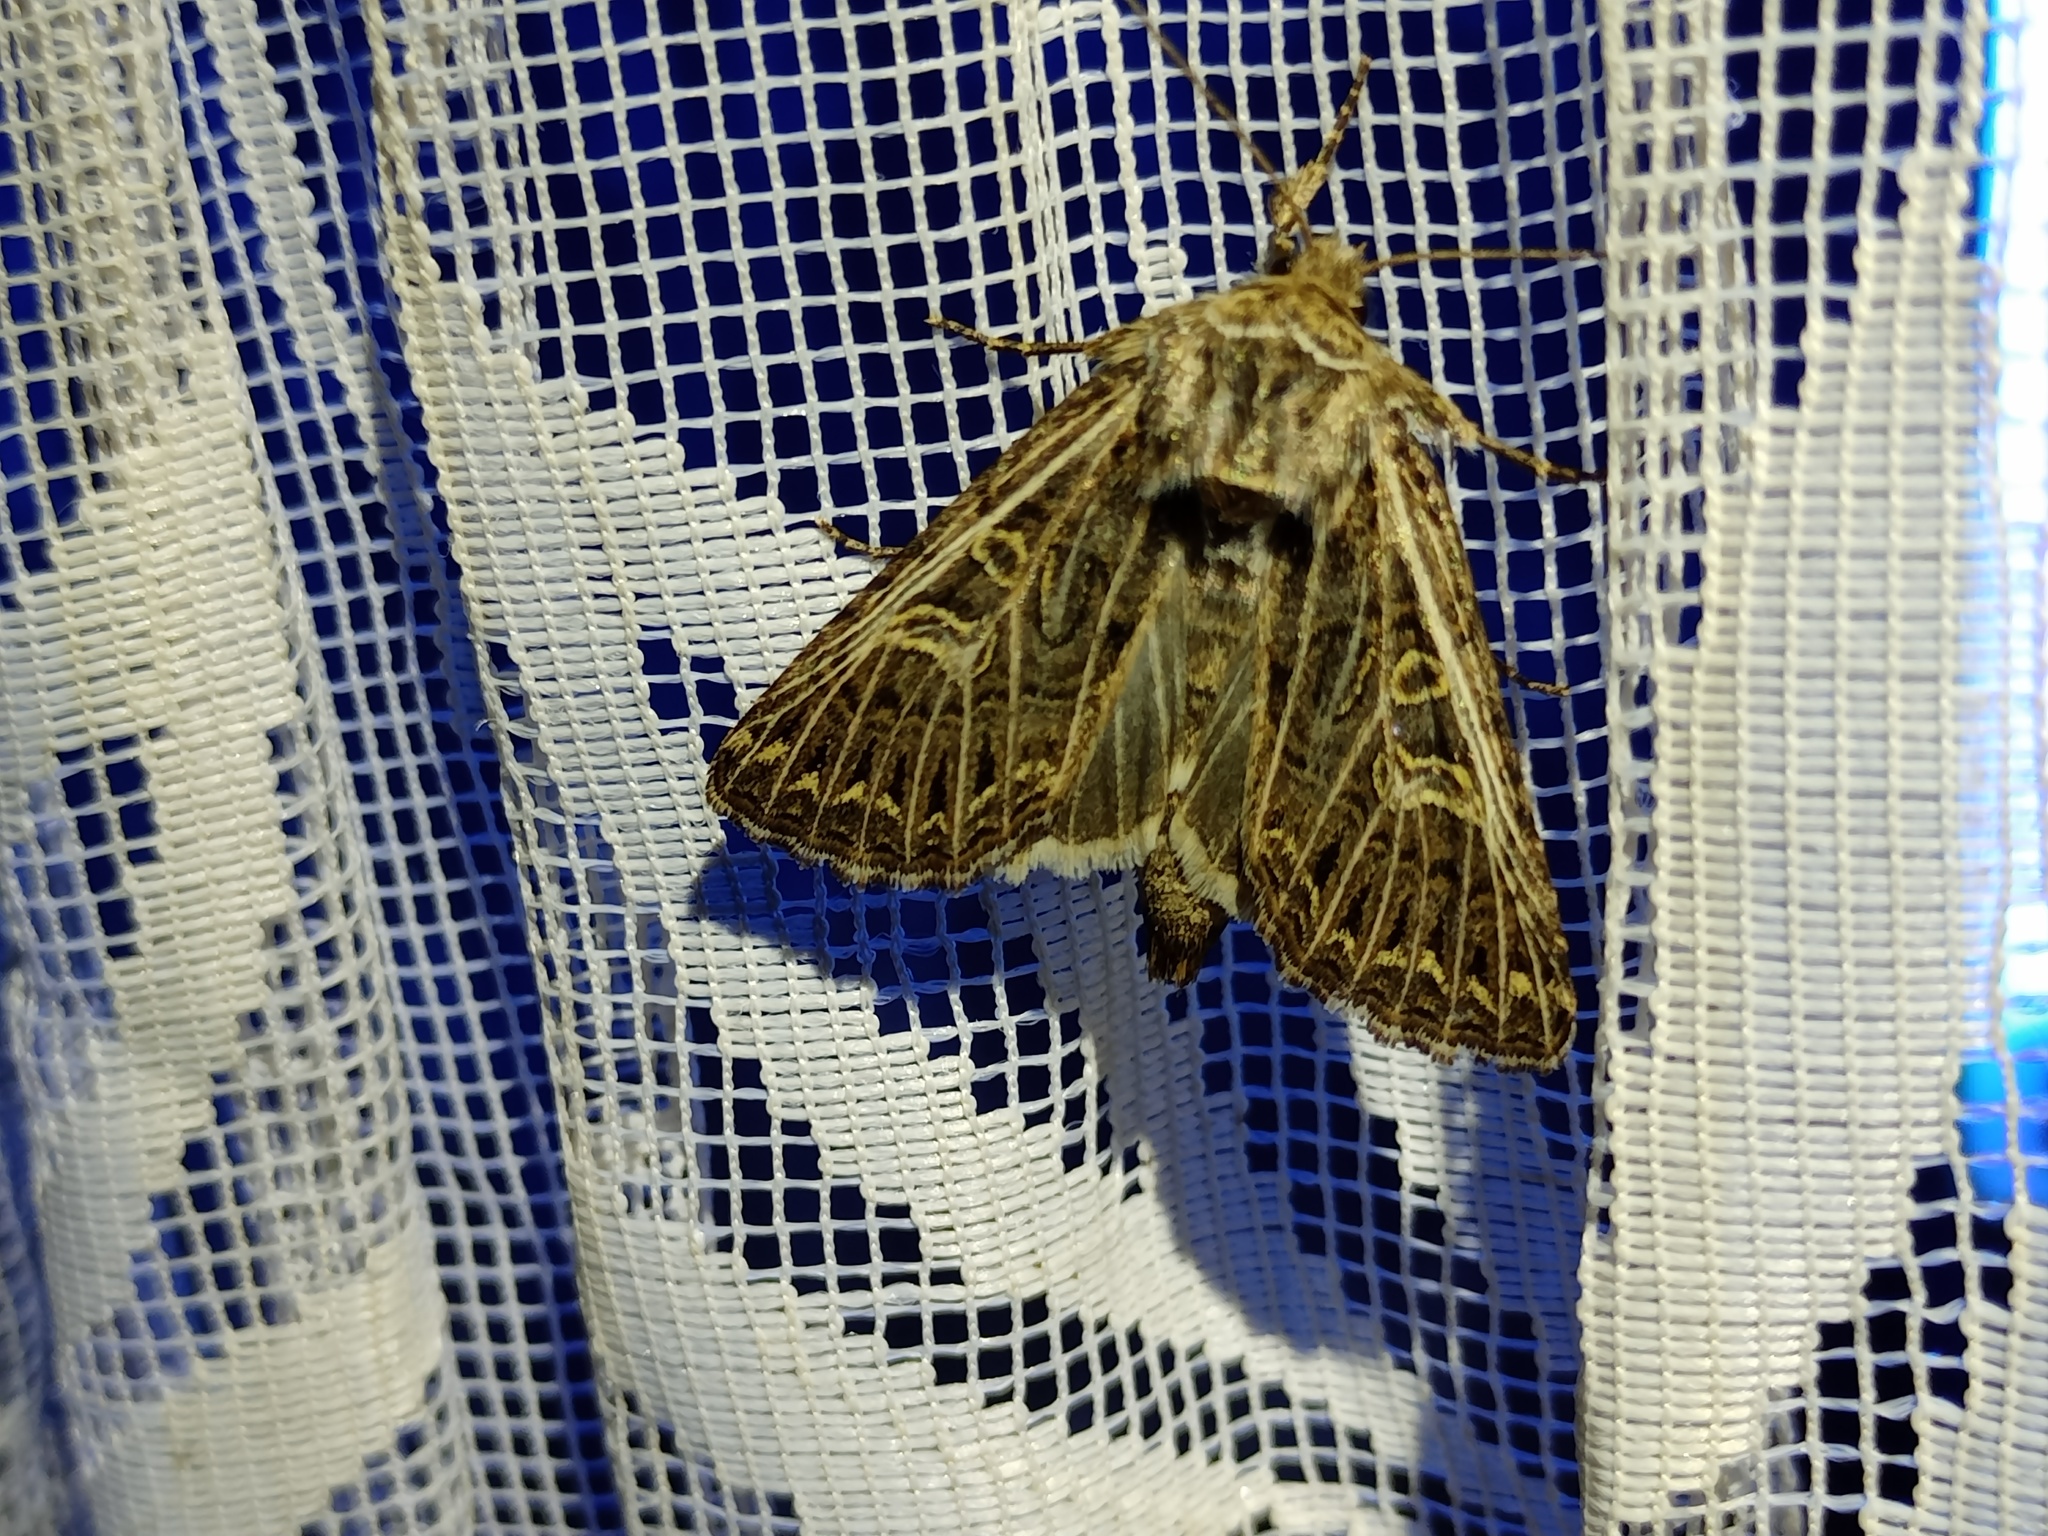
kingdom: Animalia
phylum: Arthropoda
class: Insecta
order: Lepidoptera
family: Noctuidae
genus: Tholera
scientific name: Tholera decimalis
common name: Feathered gothic
